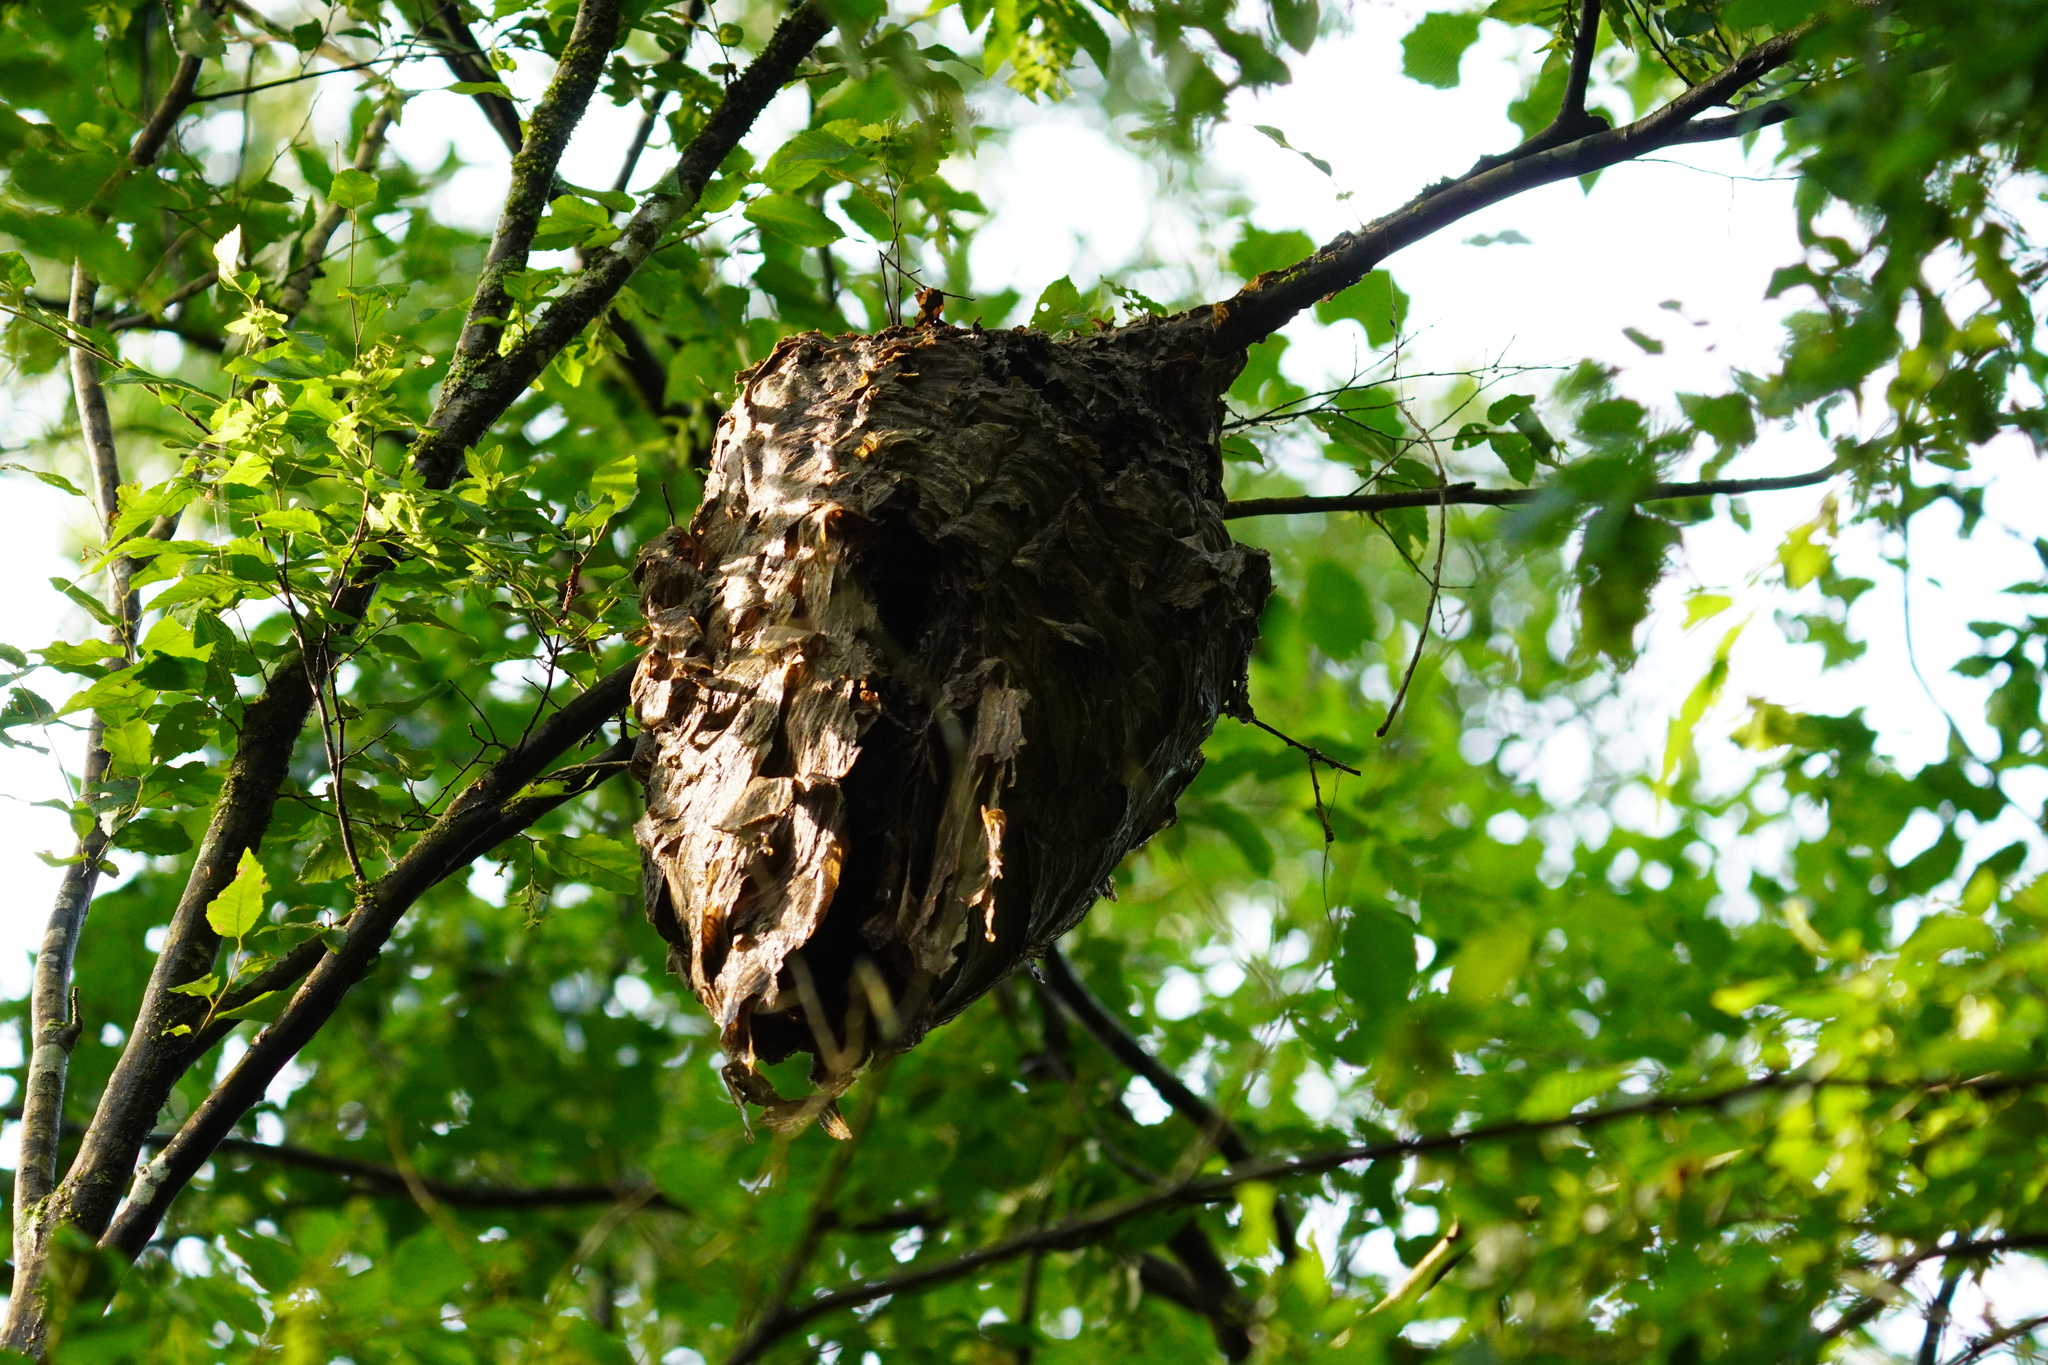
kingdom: Animalia
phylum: Arthropoda
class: Insecta
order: Hymenoptera
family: Vespidae
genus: Dolichovespula
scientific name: Dolichovespula maculata
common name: Bald-faced hornet
